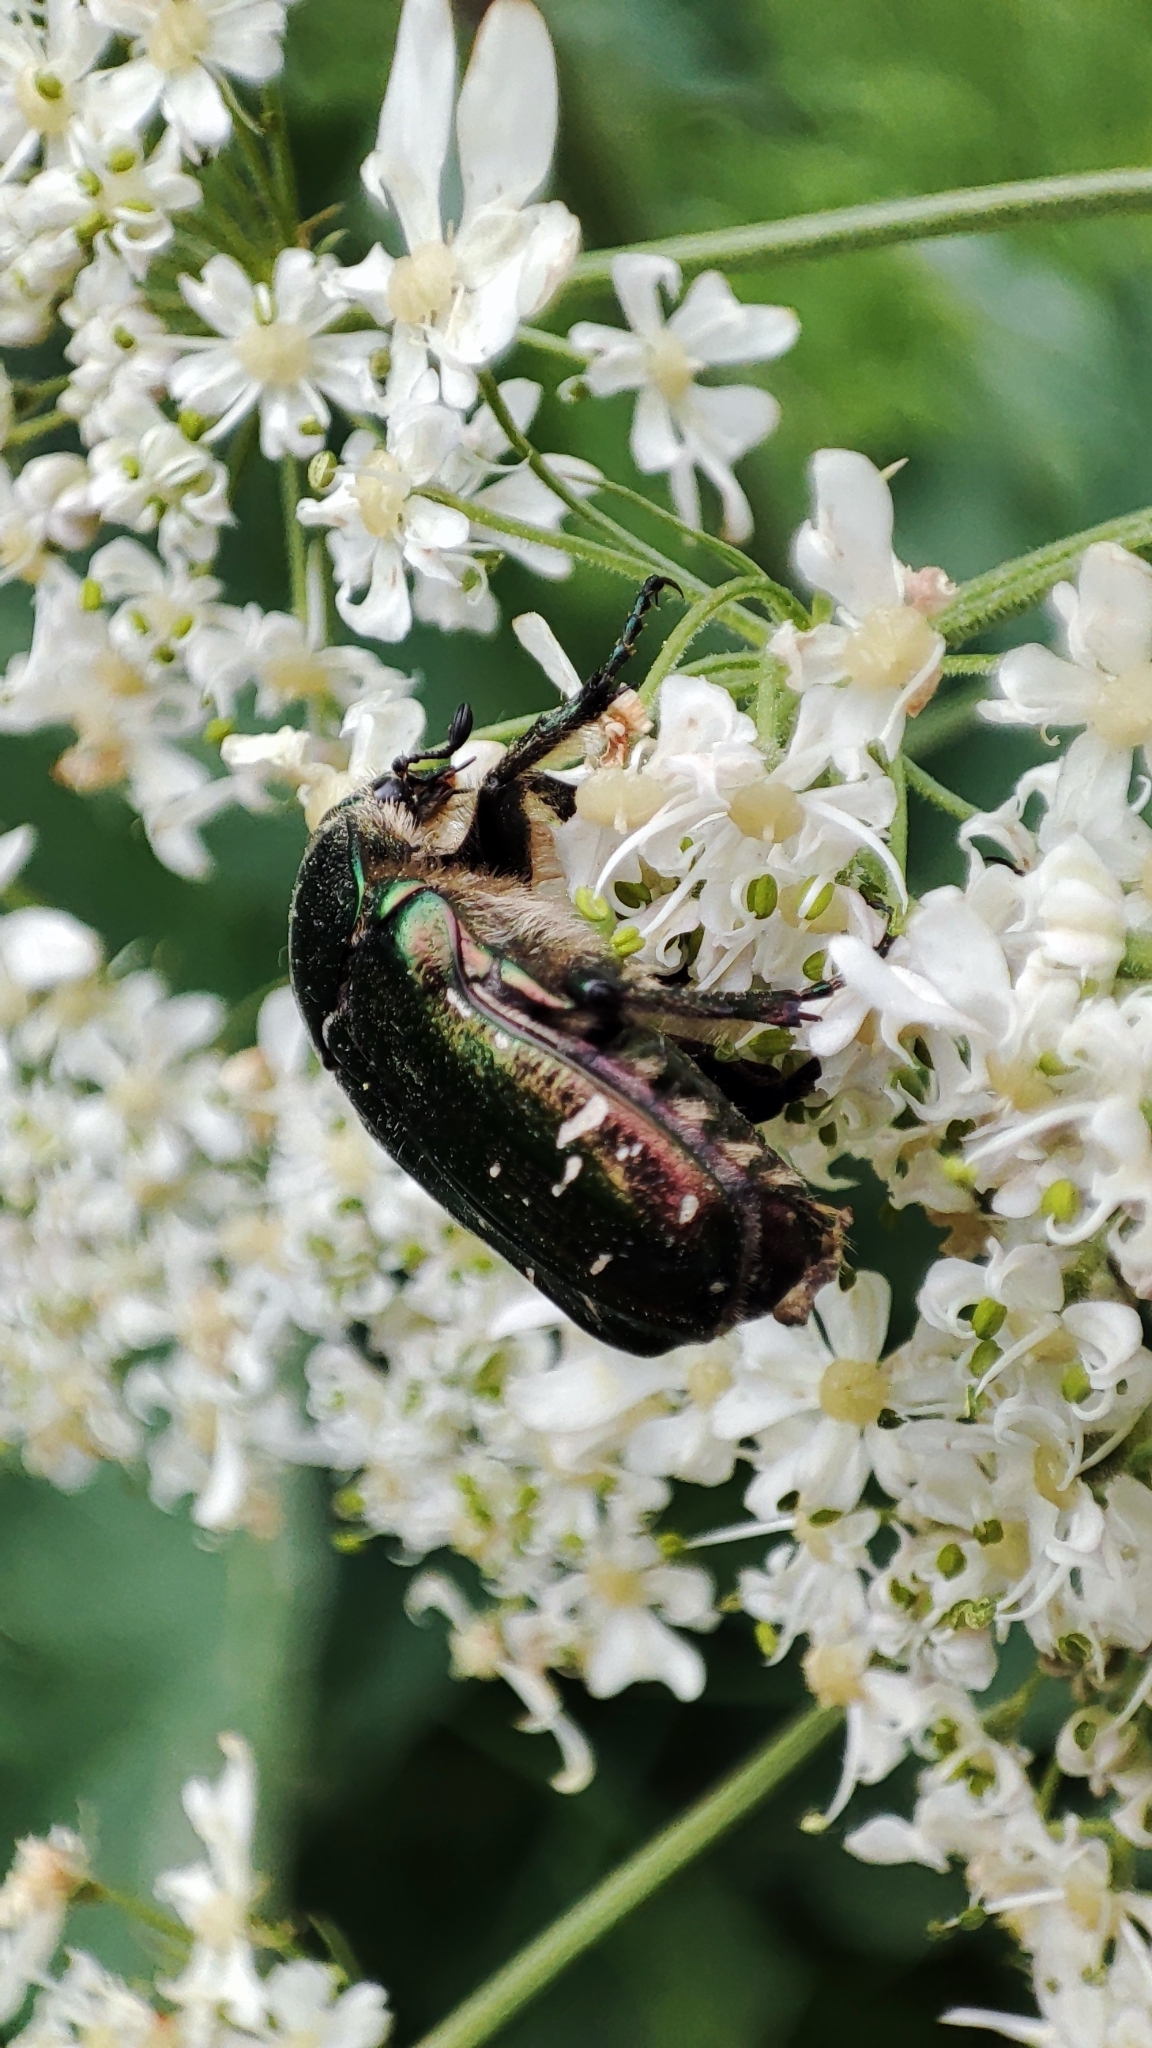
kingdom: Animalia
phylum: Arthropoda
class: Insecta
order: Coleoptera
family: Scarabaeidae
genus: Cetonia
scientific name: Cetonia aurata
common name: Rose chafer
